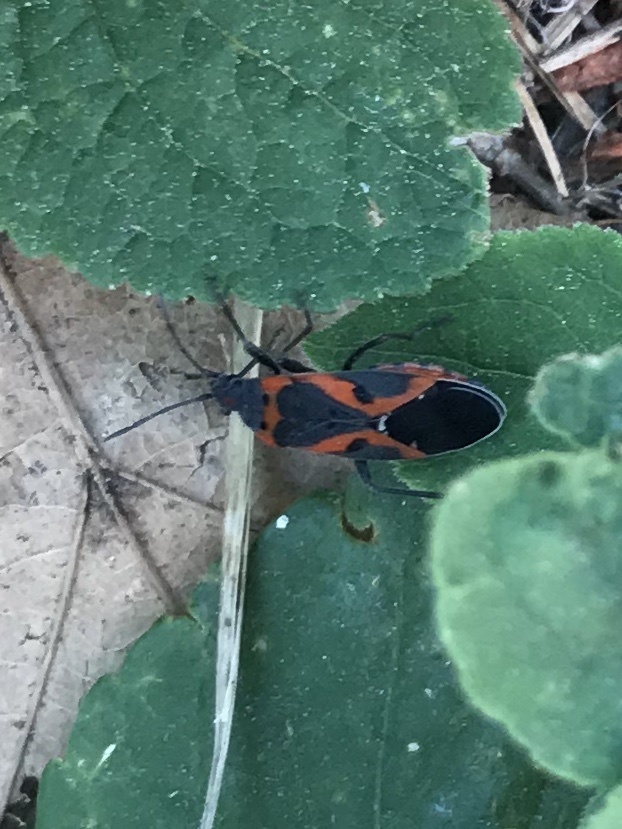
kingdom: Animalia
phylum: Arthropoda
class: Insecta
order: Hemiptera
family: Lygaeidae
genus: Lygaeus
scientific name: Lygaeus kalmii
